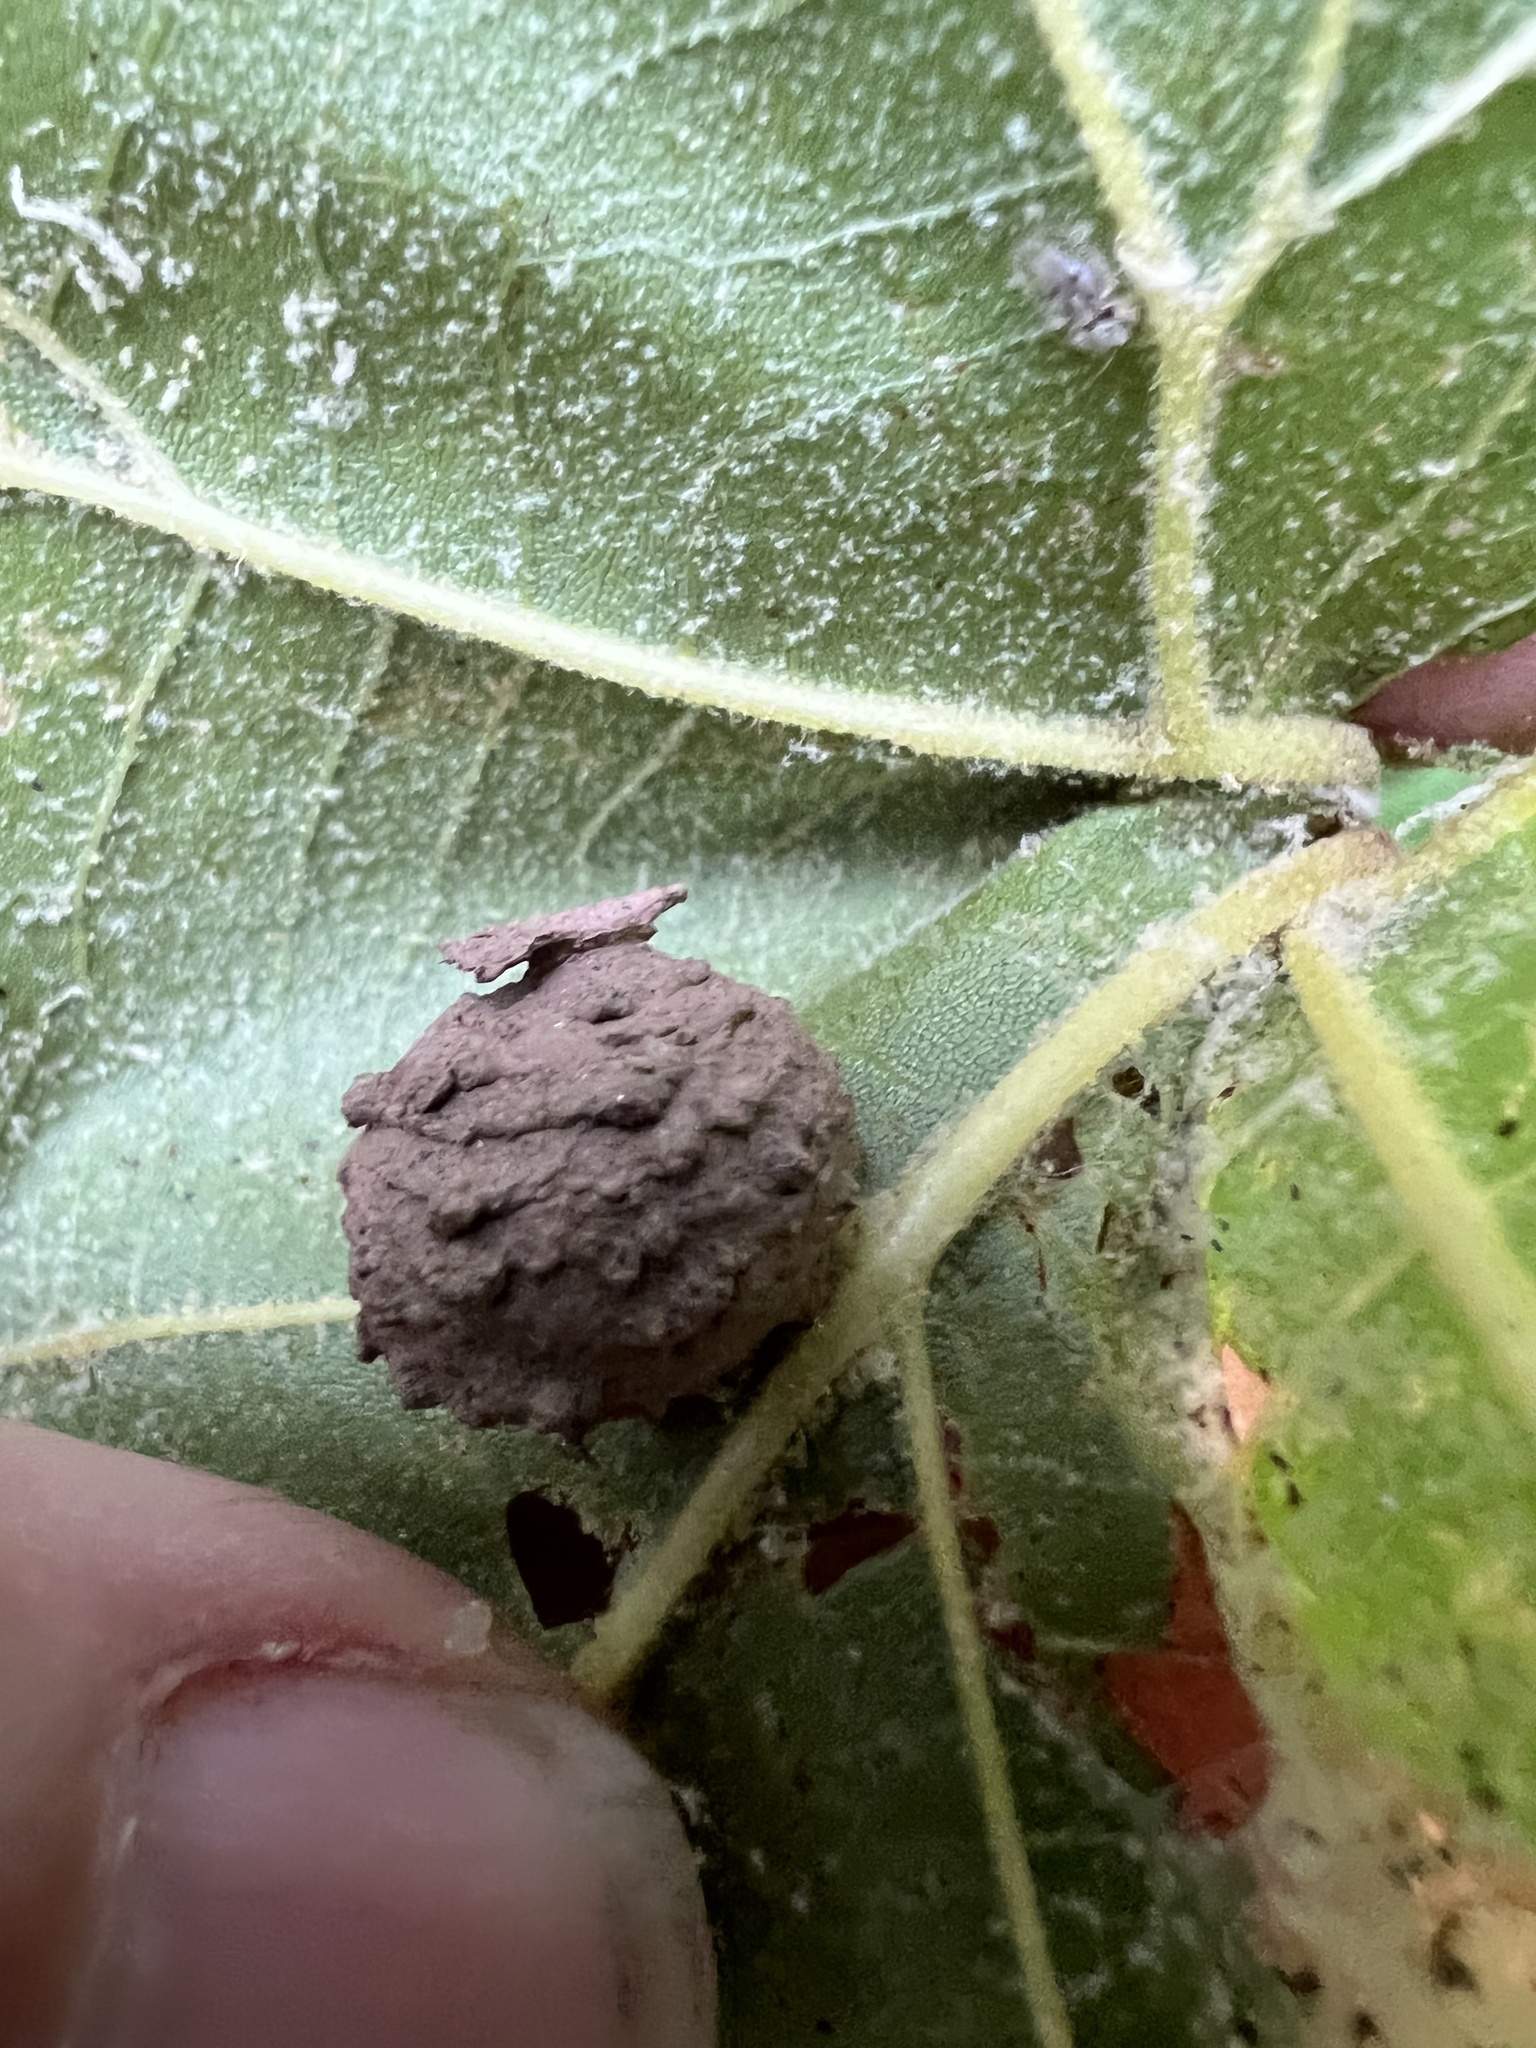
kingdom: Animalia
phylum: Arthropoda
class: Insecta
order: Hymenoptera
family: Vespidae
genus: Eumenes
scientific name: Eumenes
